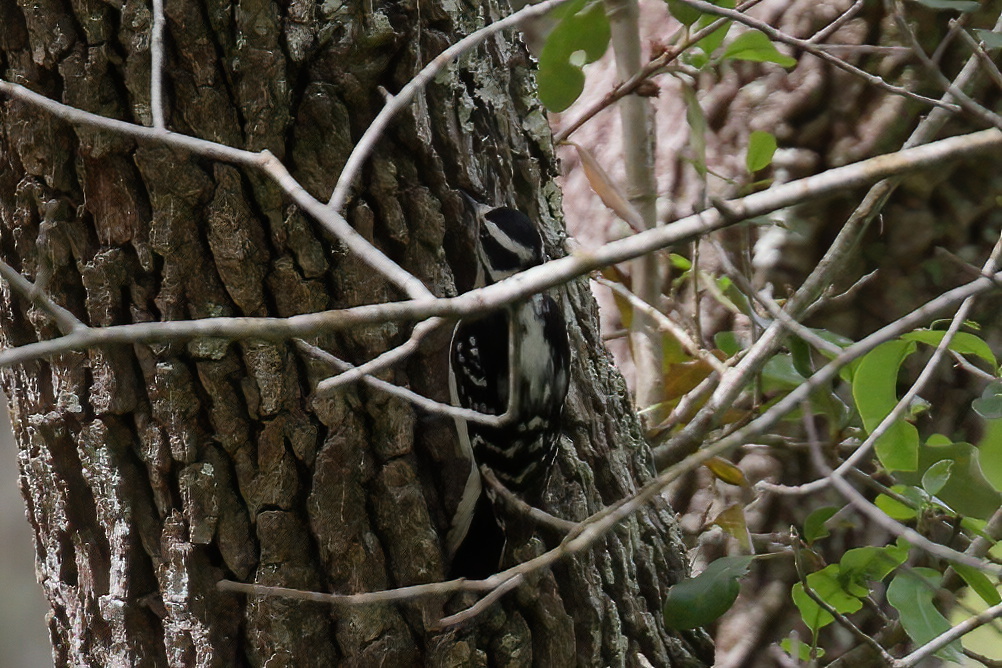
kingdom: Animalia
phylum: Chordata
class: Aves
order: Piciformes
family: Picidae
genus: Dryobates
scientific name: Dryobates pubescens
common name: Downy woodpecker
